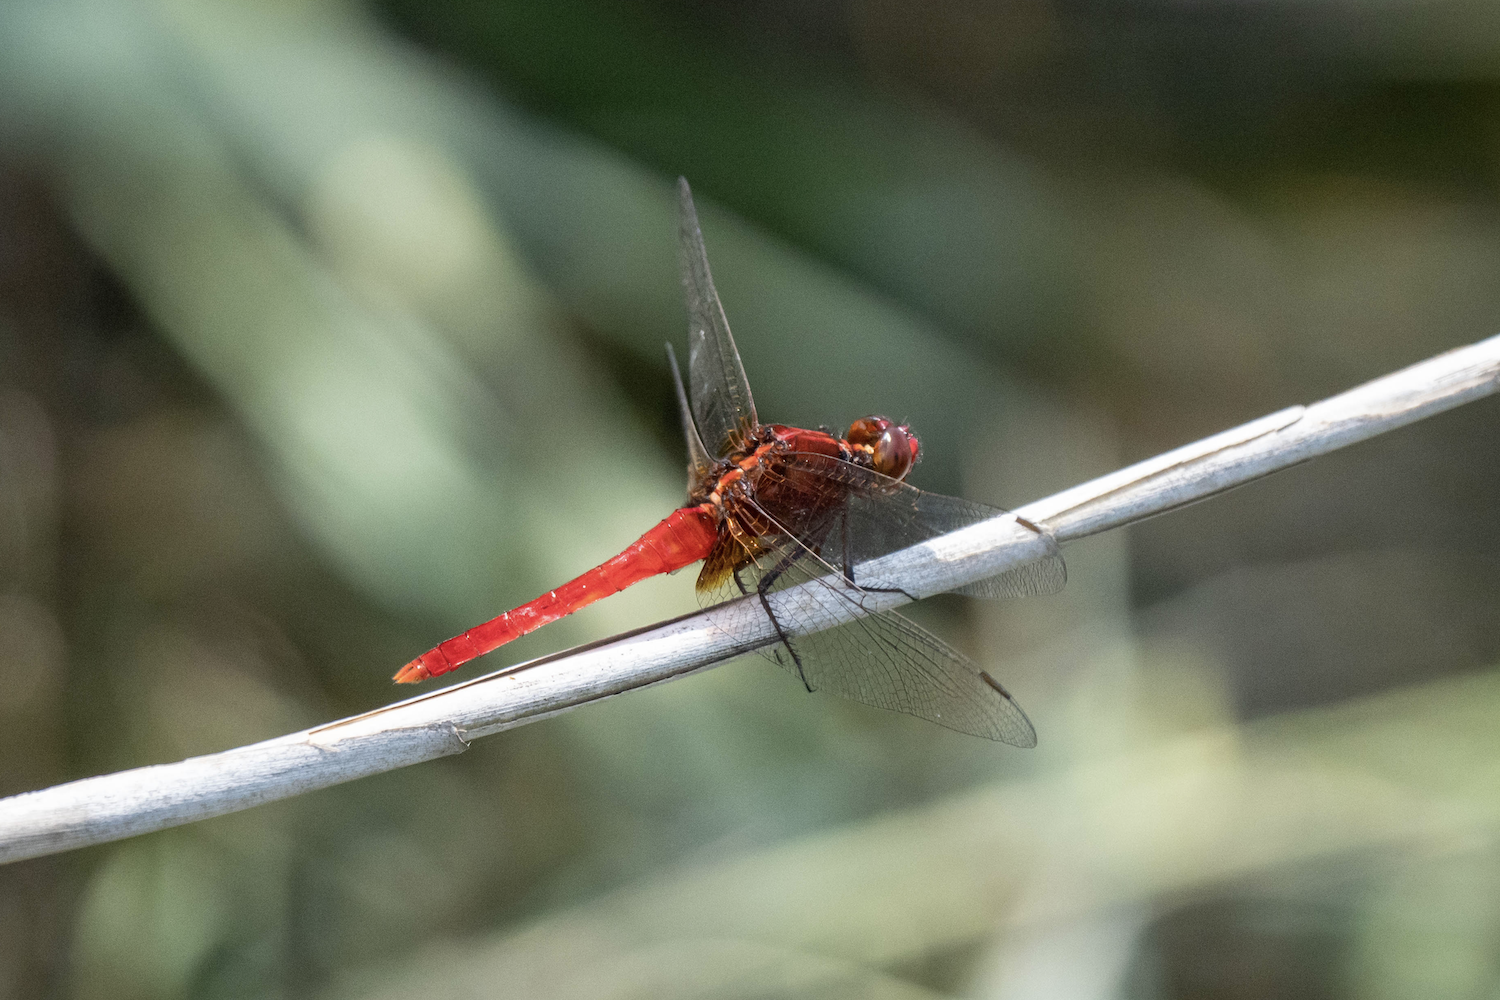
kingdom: Animalia
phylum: Arthropoda
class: Insecta
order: Odonata
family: Libellulidae
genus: Rhodothemis
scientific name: Rhodothemis rufa
